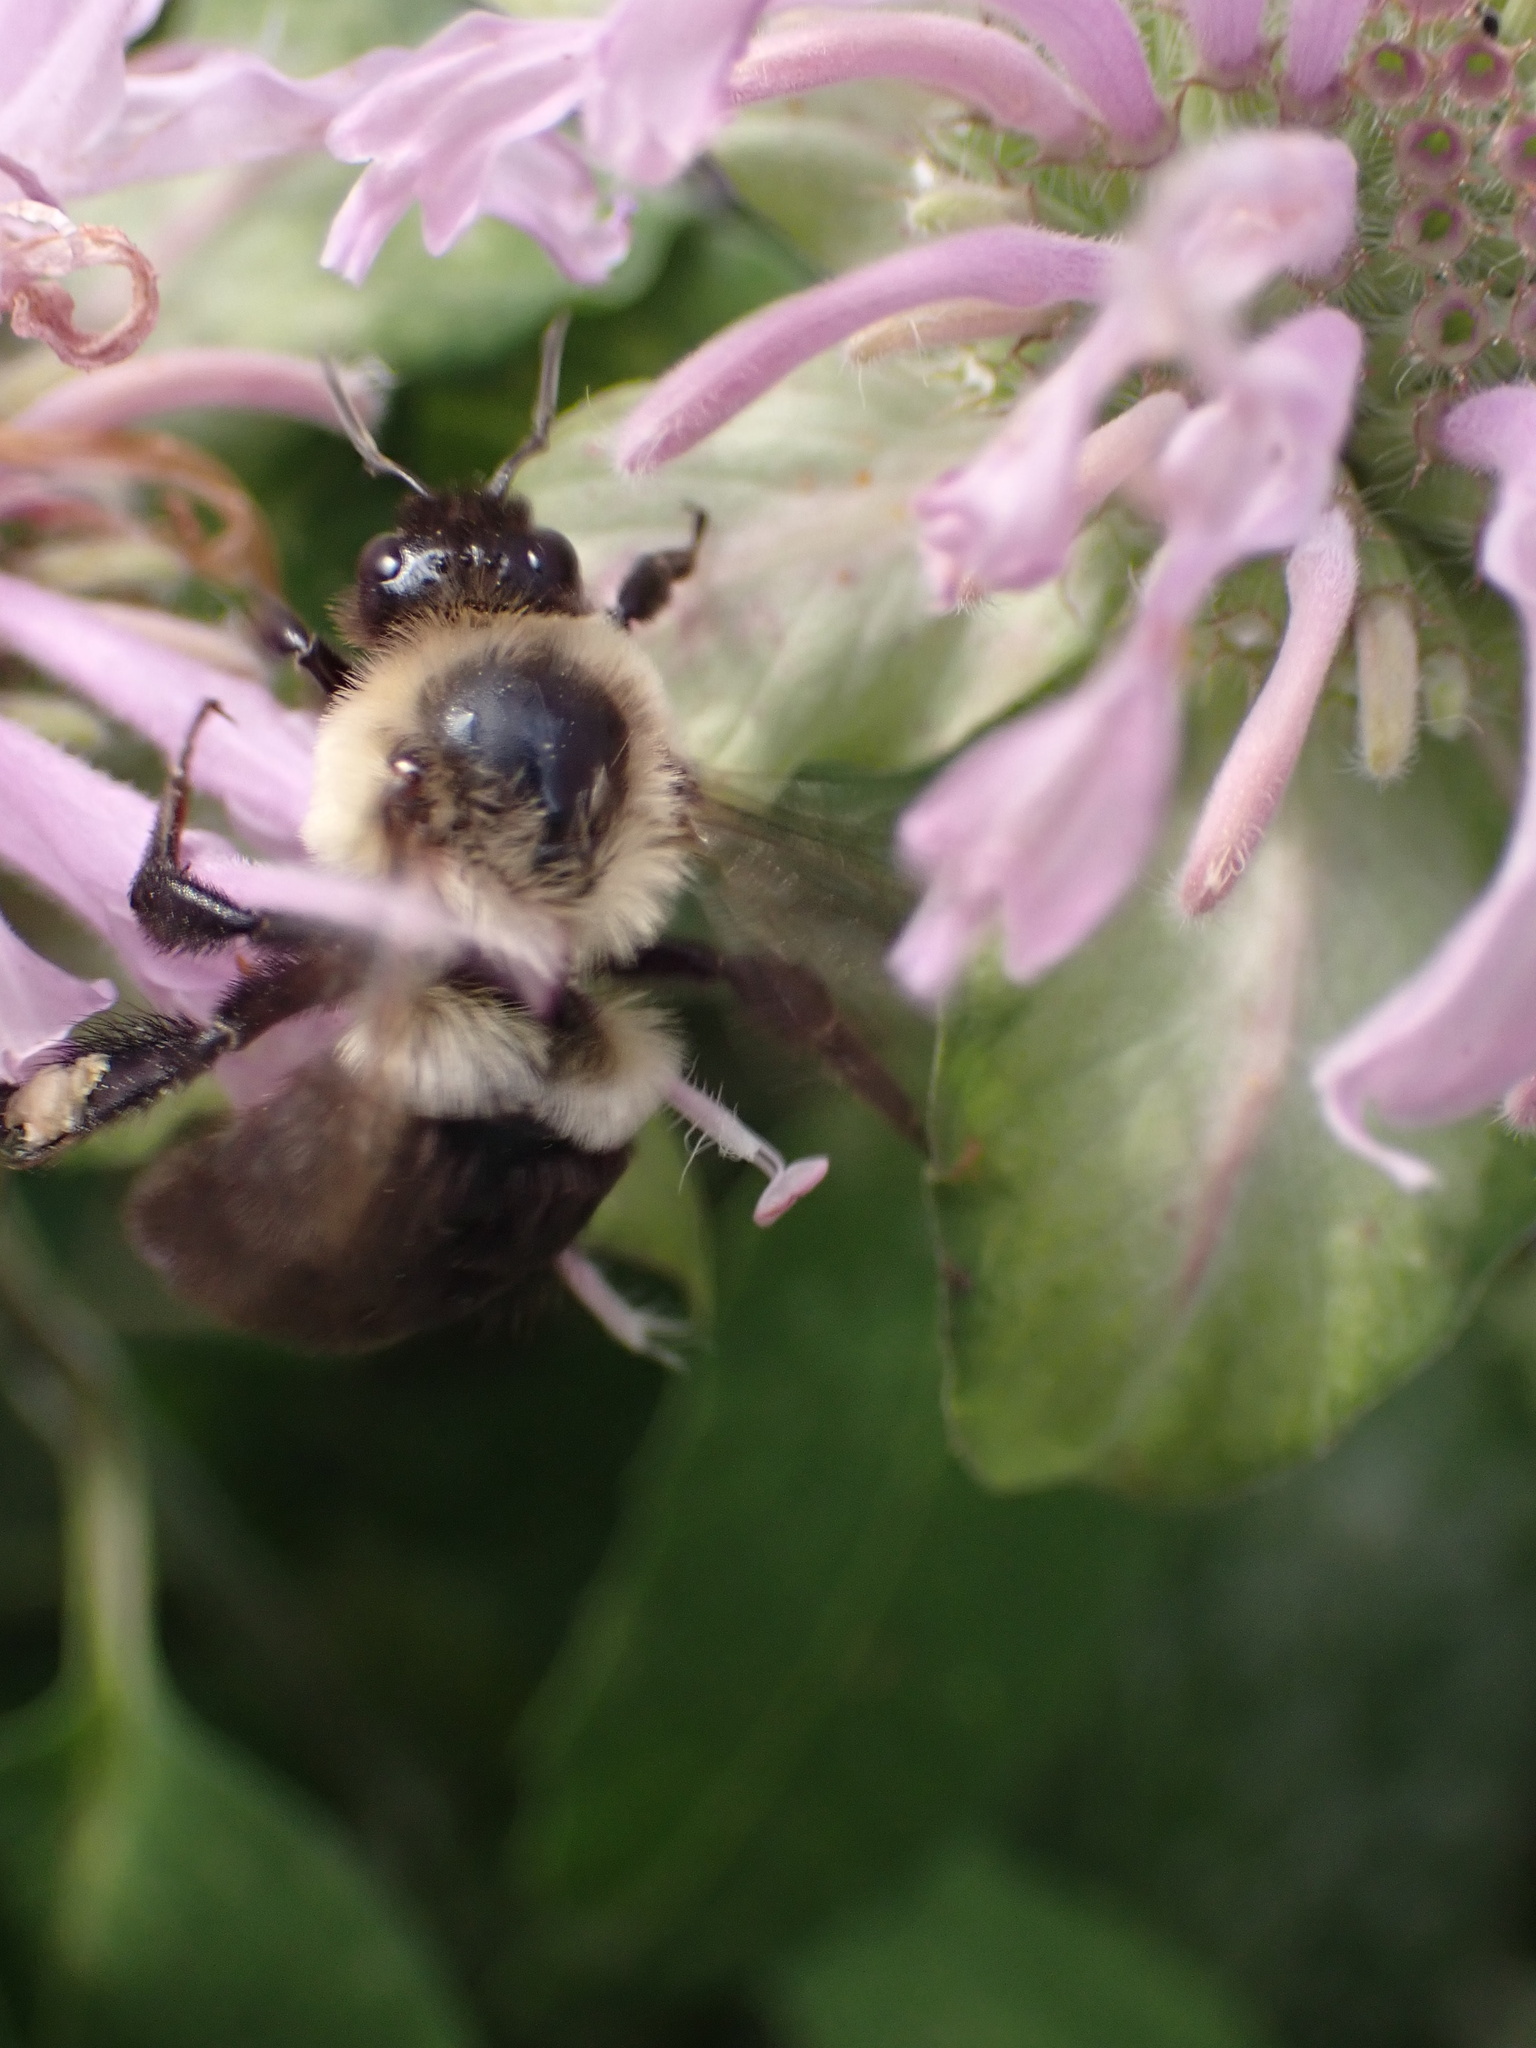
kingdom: Animalia
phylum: Arthropoda
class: Insecta
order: Hymenoptera
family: Apidae
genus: Bombus
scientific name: Bombus impatiens
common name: Common eastern bumble bee
